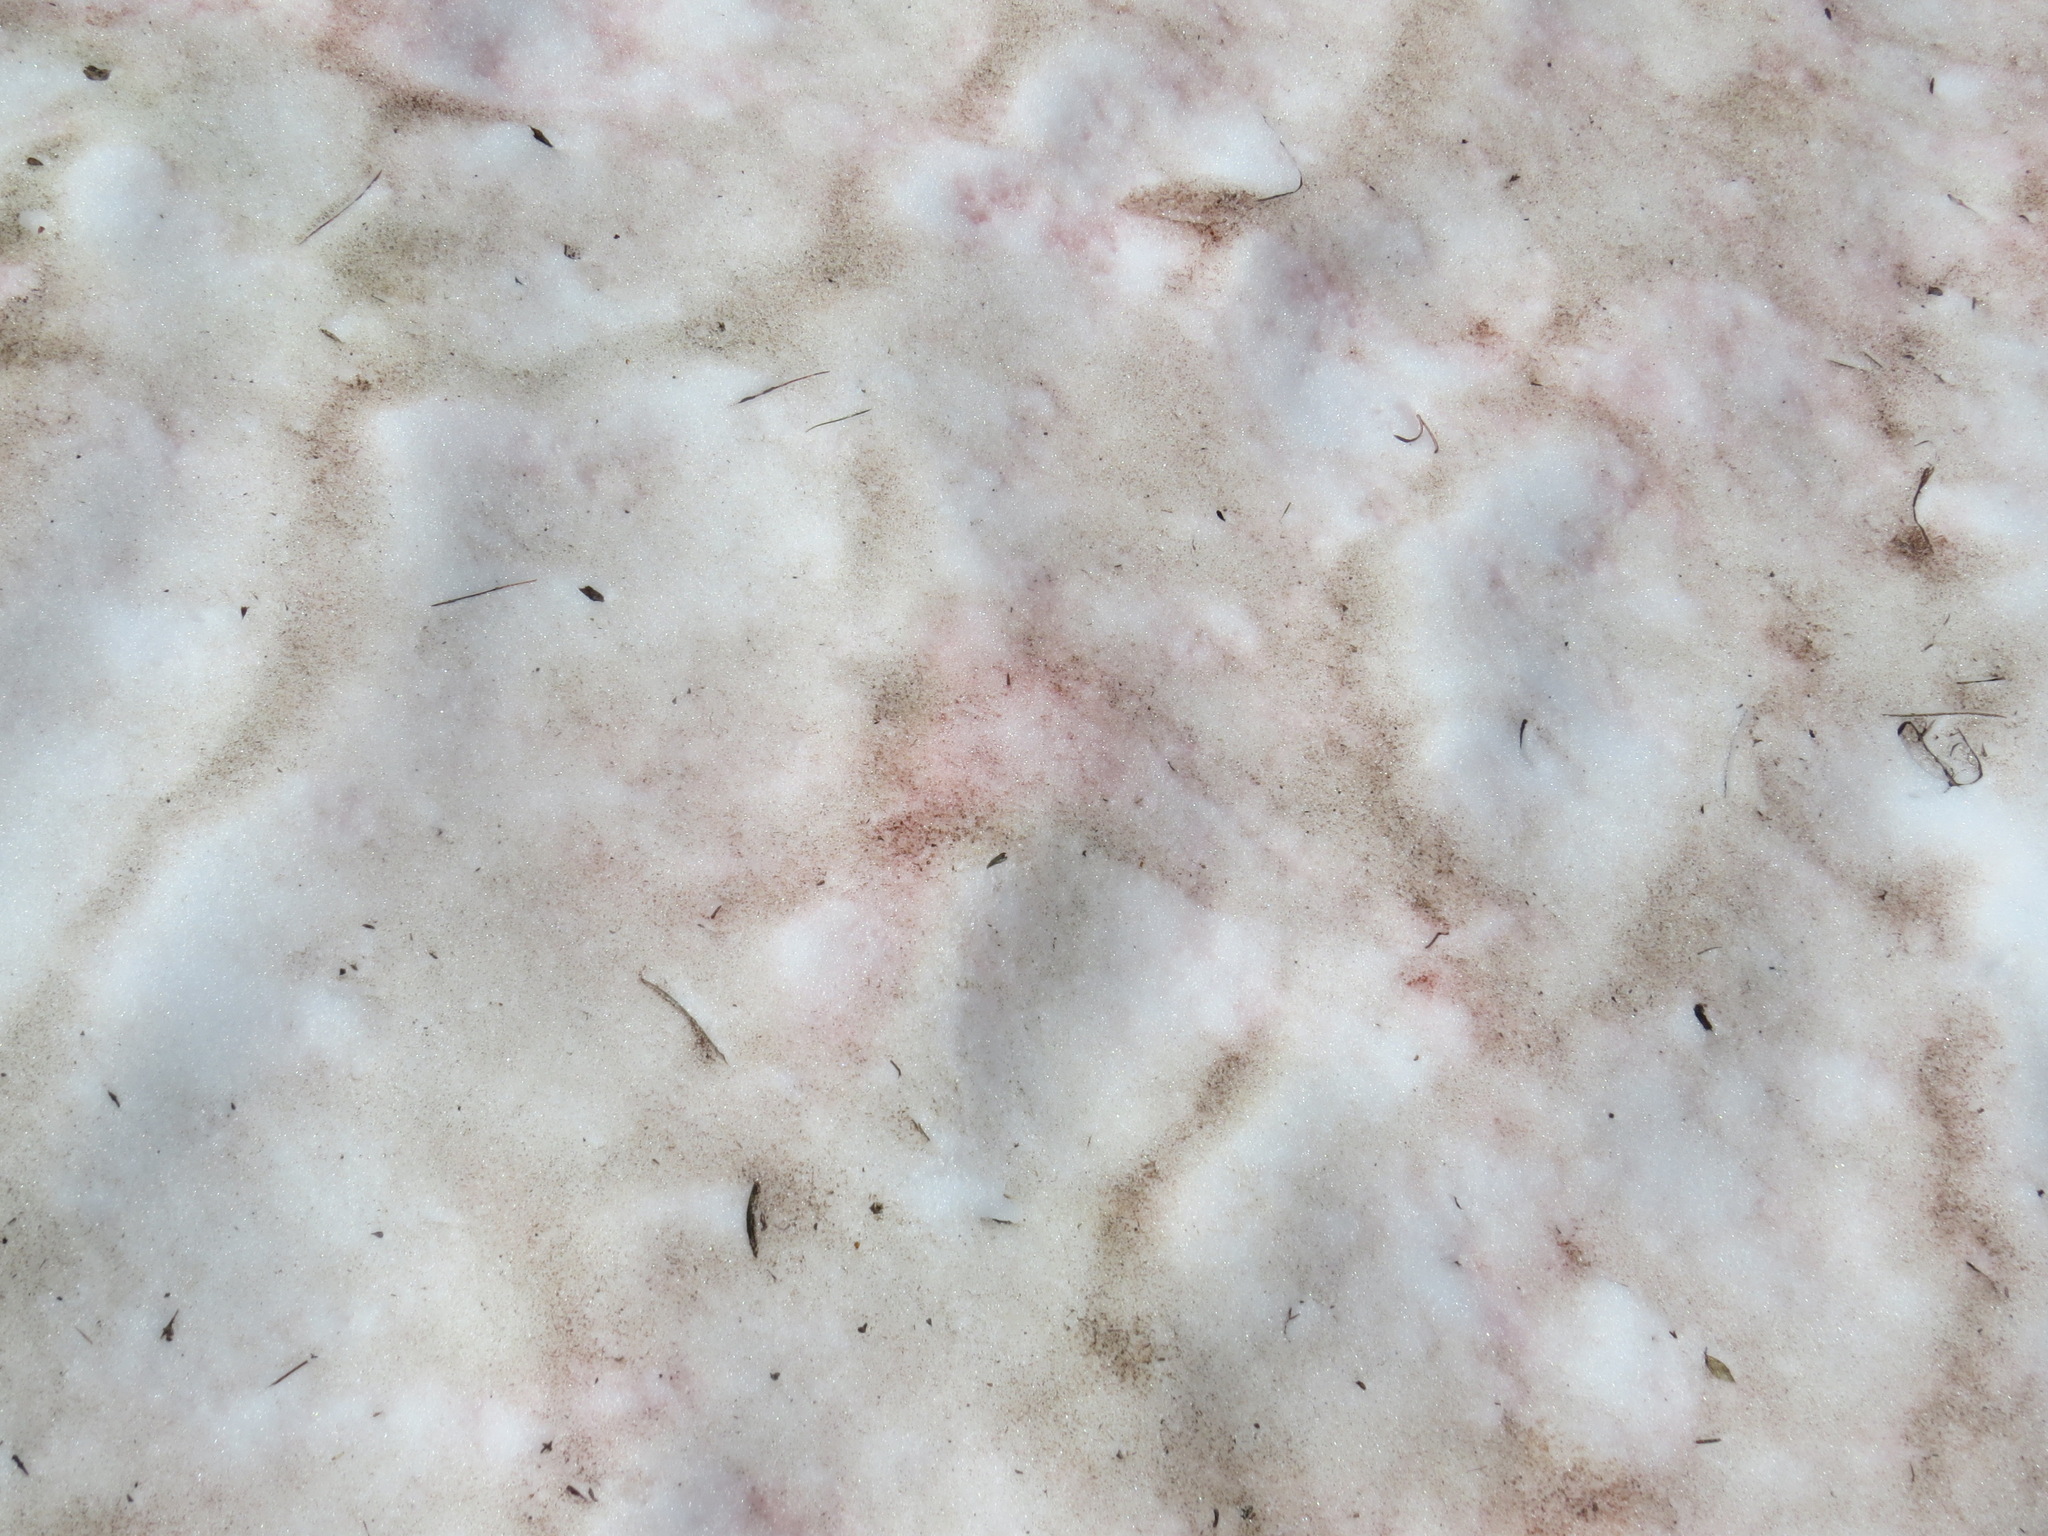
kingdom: Plantae
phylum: Chlorophyta
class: Chlorophyceae
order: Volvocales
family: Chlamydomonadaceae
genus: Chlamydomonas
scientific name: Chlamydomonas nivalis
